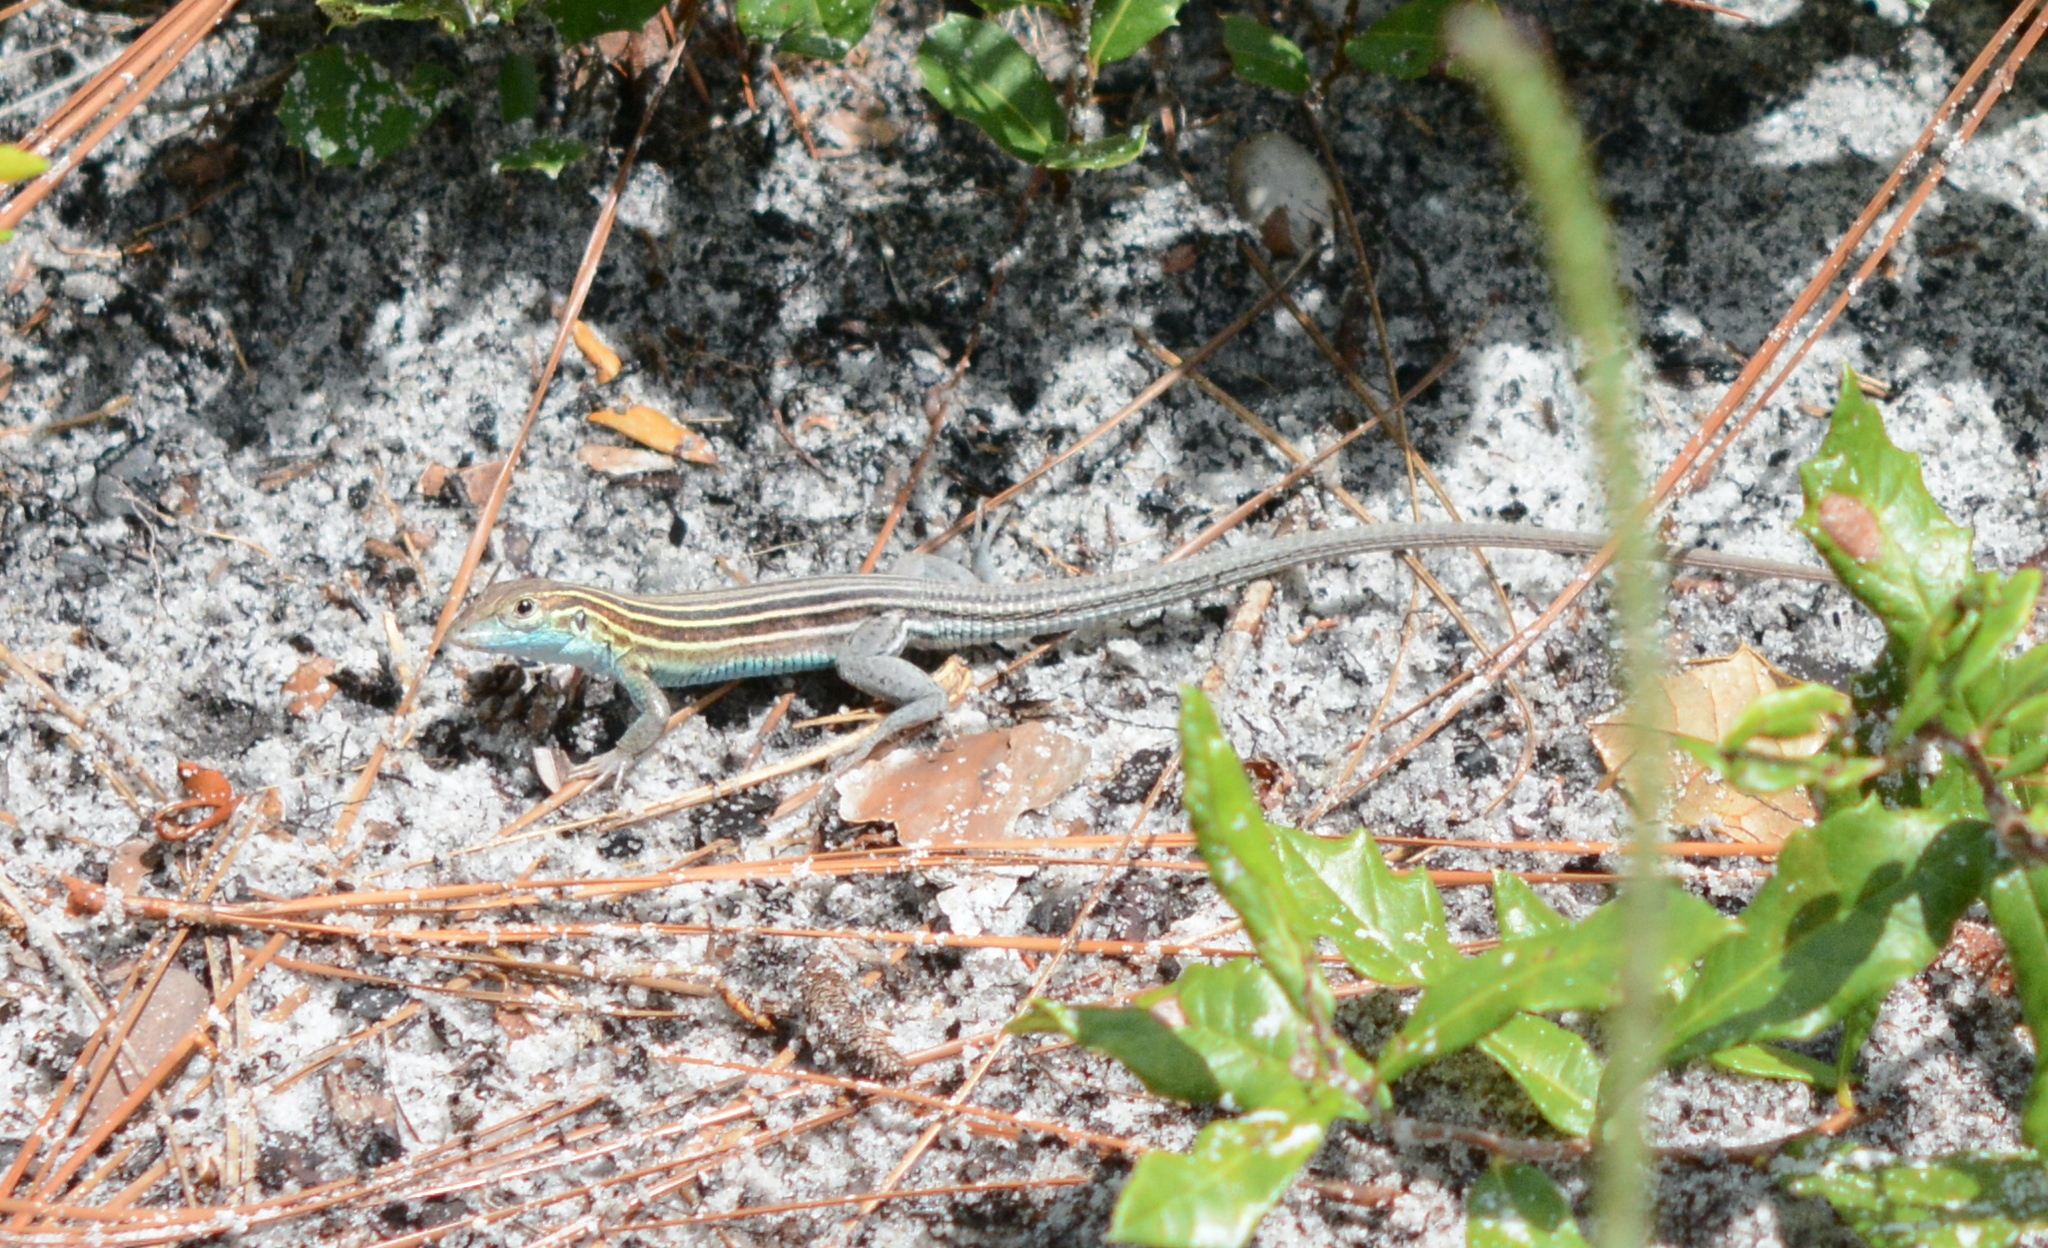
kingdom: Animalia
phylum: Chordata
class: Squamata
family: Teiidae
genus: Aspidoscelis
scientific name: Aspidoscelis sexlineatus
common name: Six-lined racerunner
